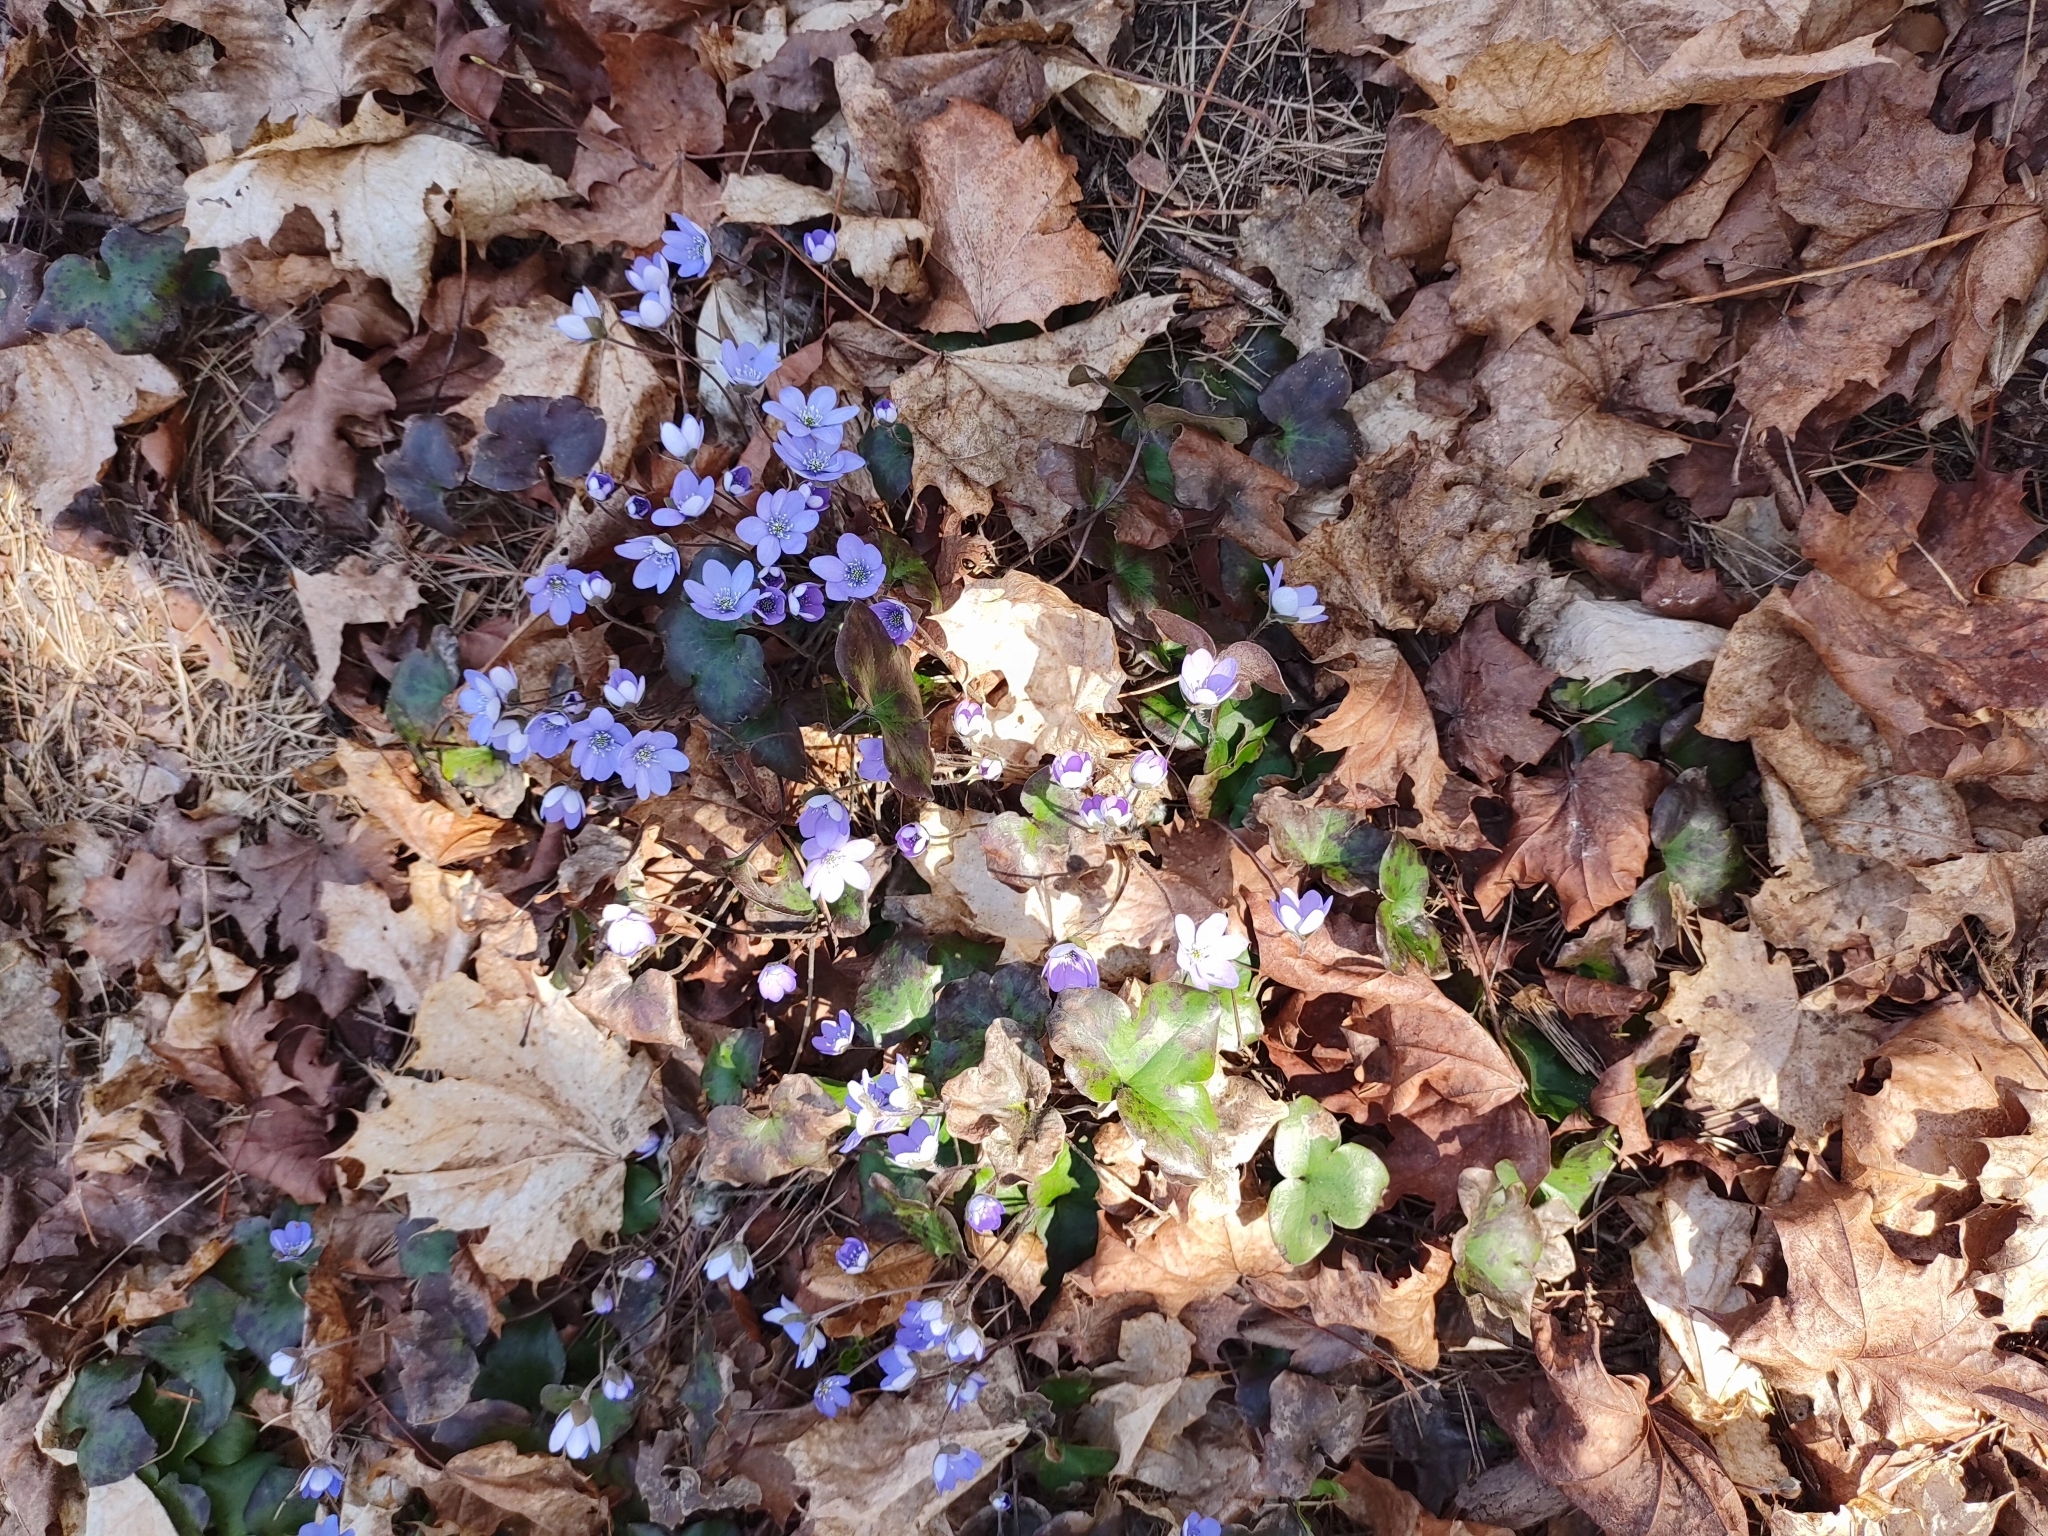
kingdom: Plantae
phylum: Tracheophyta
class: Magnoliopsida
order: Ranunculales
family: Ranunculaceae
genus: Hepatica
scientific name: Hepatica nobilis
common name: Liverleaf
